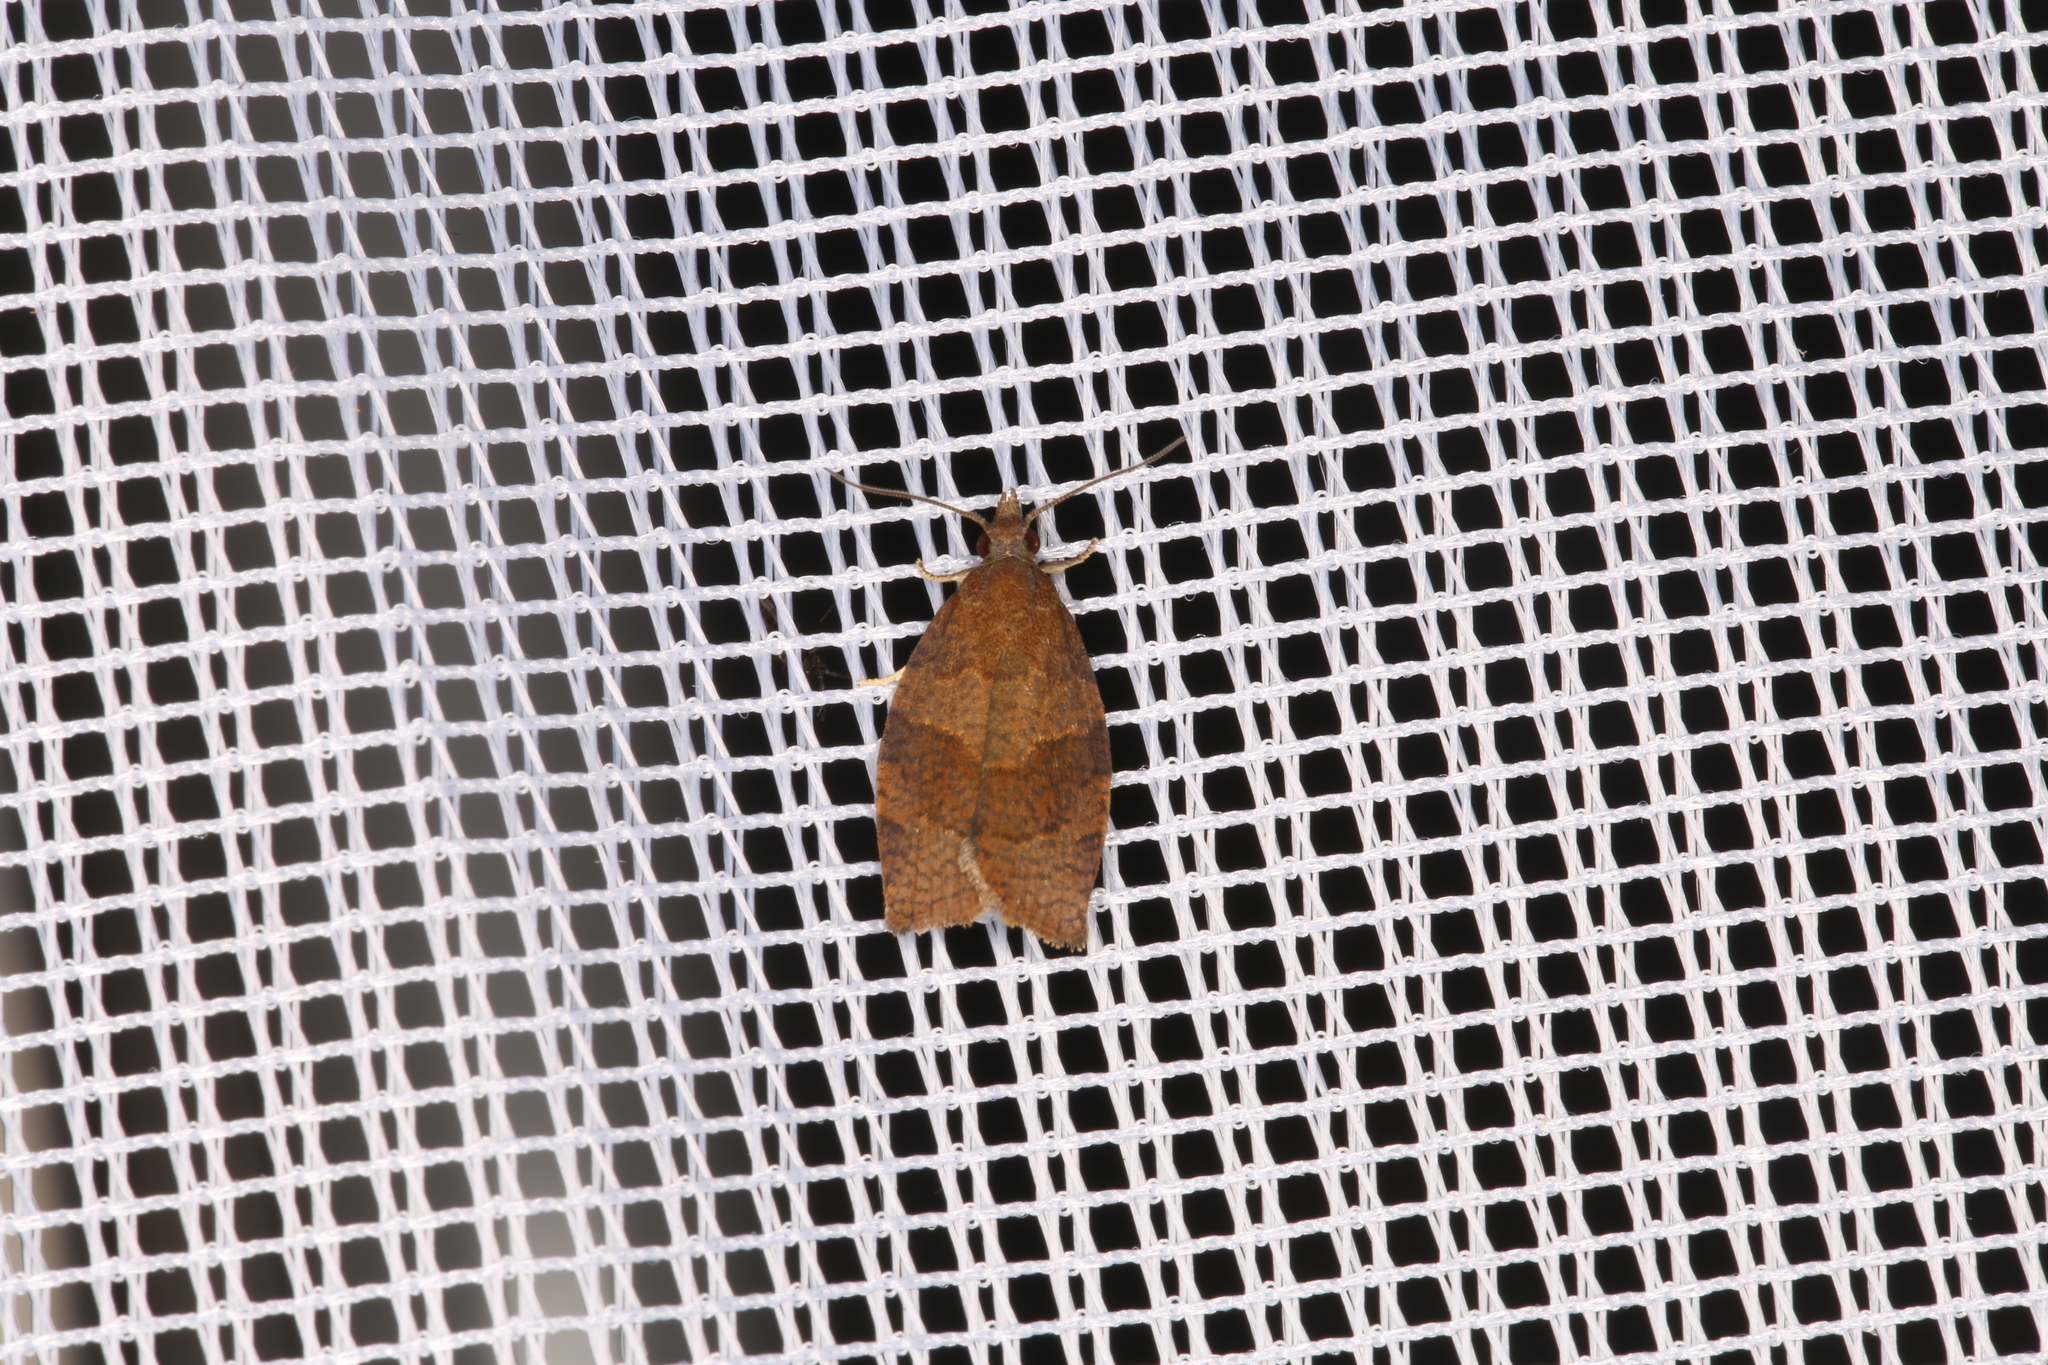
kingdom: Animalia
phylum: Arthropoda
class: Insecta
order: Lepidoptera
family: Tortricidae
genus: Pandemis
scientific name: Pandemis heparana
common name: Dark fruit-tree tortrix
